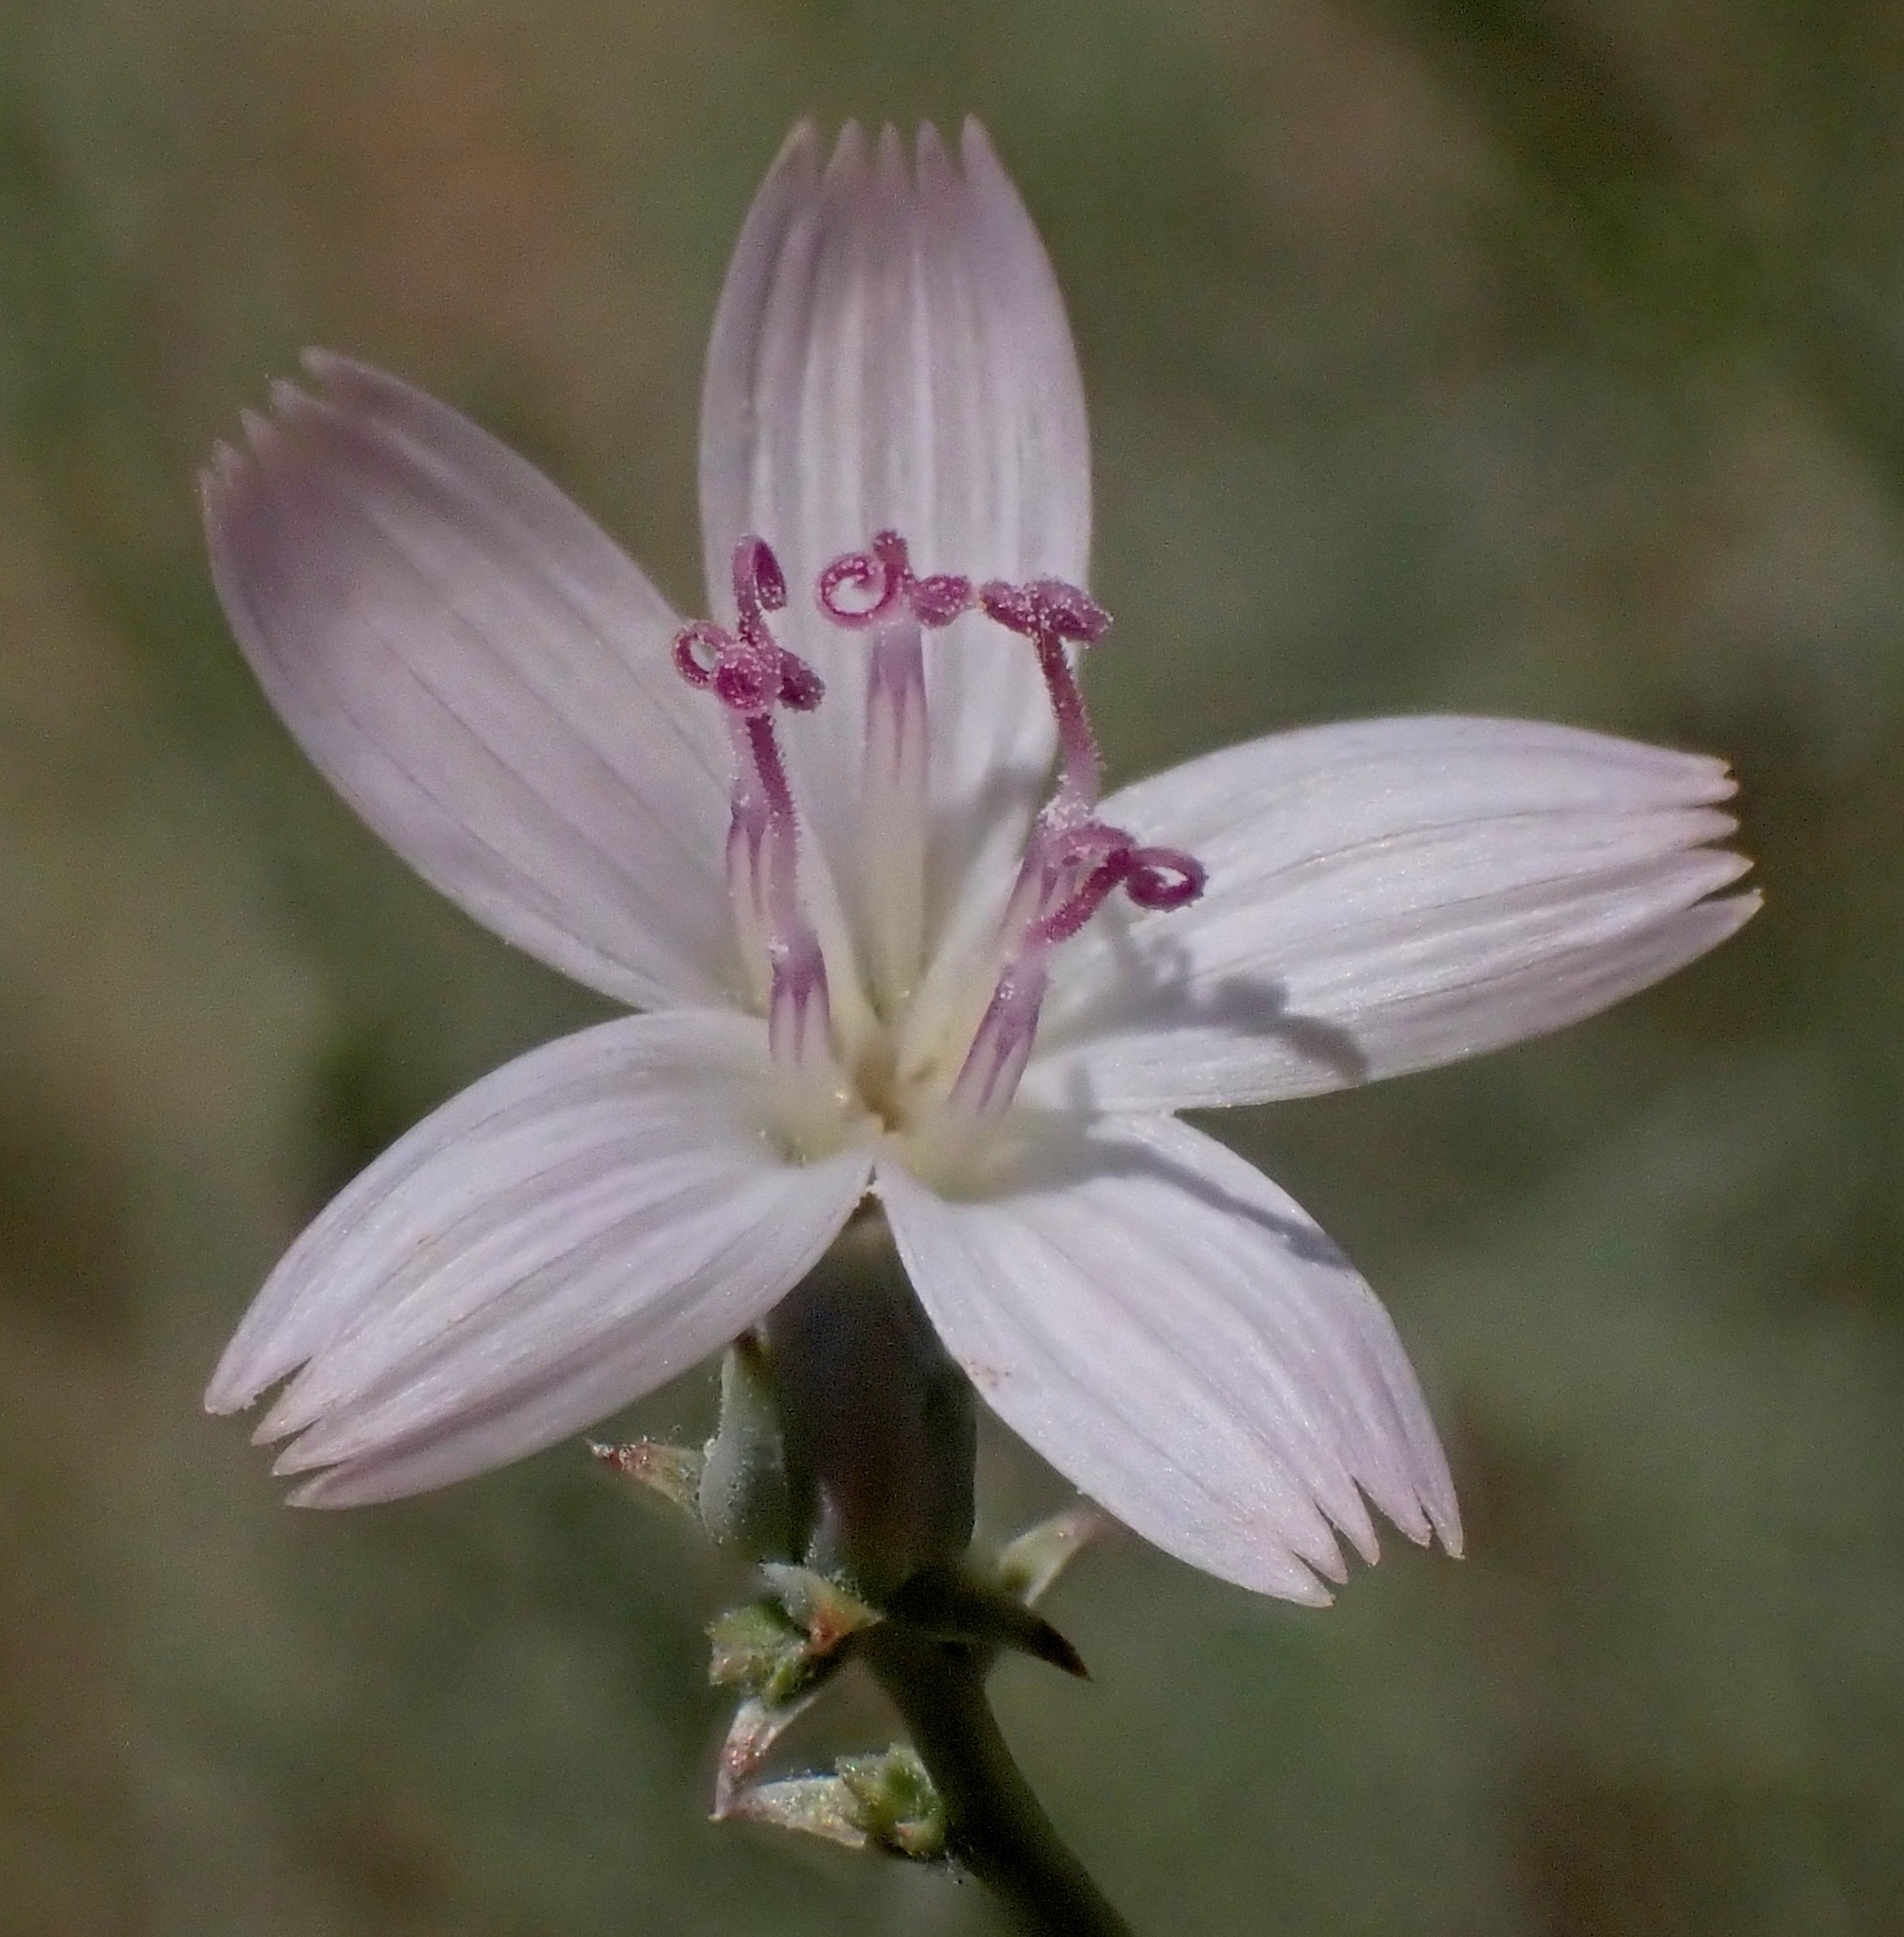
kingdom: Plantae
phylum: Tracheophyta
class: Magnoliopsida
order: Asterales
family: Asteraceae
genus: Stephanomeria
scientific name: Stephanomeria pauciflora
